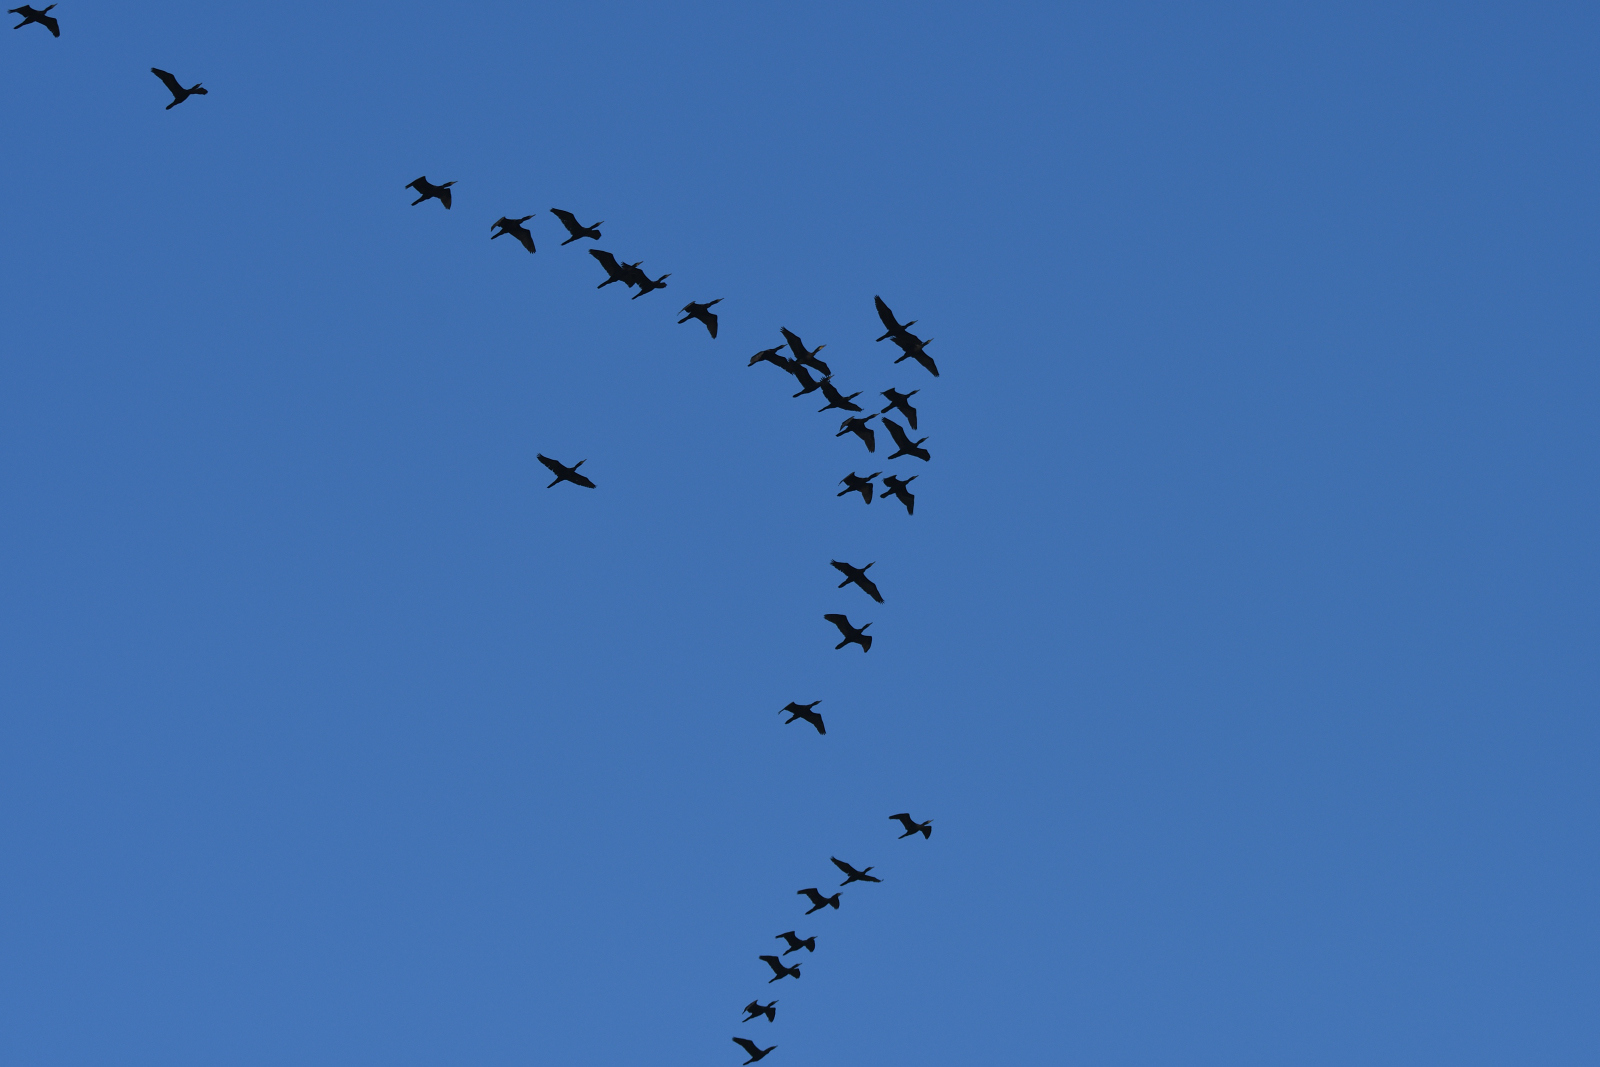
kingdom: Animalia
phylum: Chordata
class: Aves
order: Suliformes
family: Phalacrocoracidae
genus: Phalacrocorax
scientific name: Phalacrocorax fuscicollis
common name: Indian cormorant
